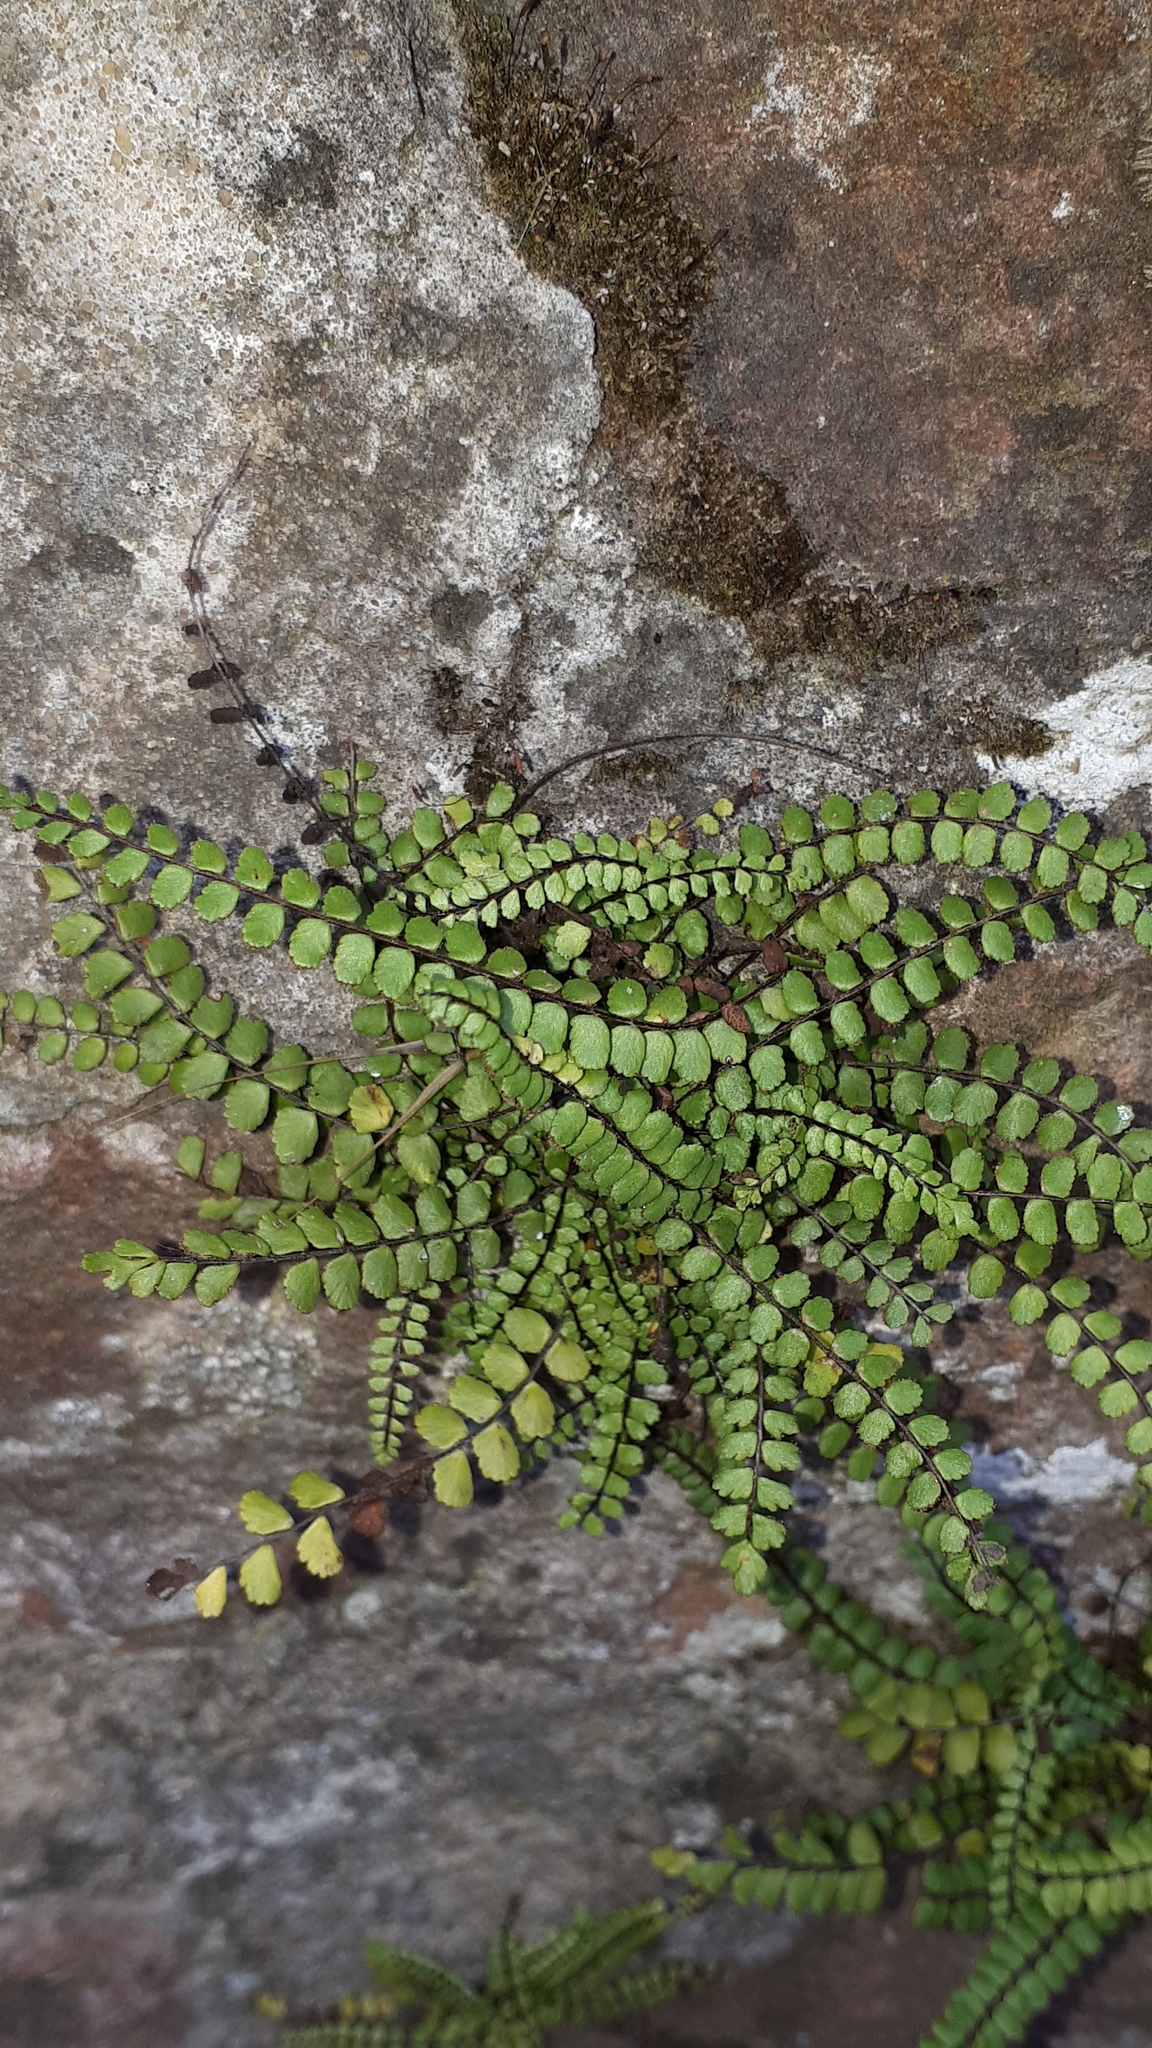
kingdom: Plantae
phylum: Tracheophyta
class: Polypodiopsida
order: Polypodiales
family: Aspleniaceae
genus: Asplenium
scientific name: Asplenium trichomanes
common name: Maidenhair spleenwort
